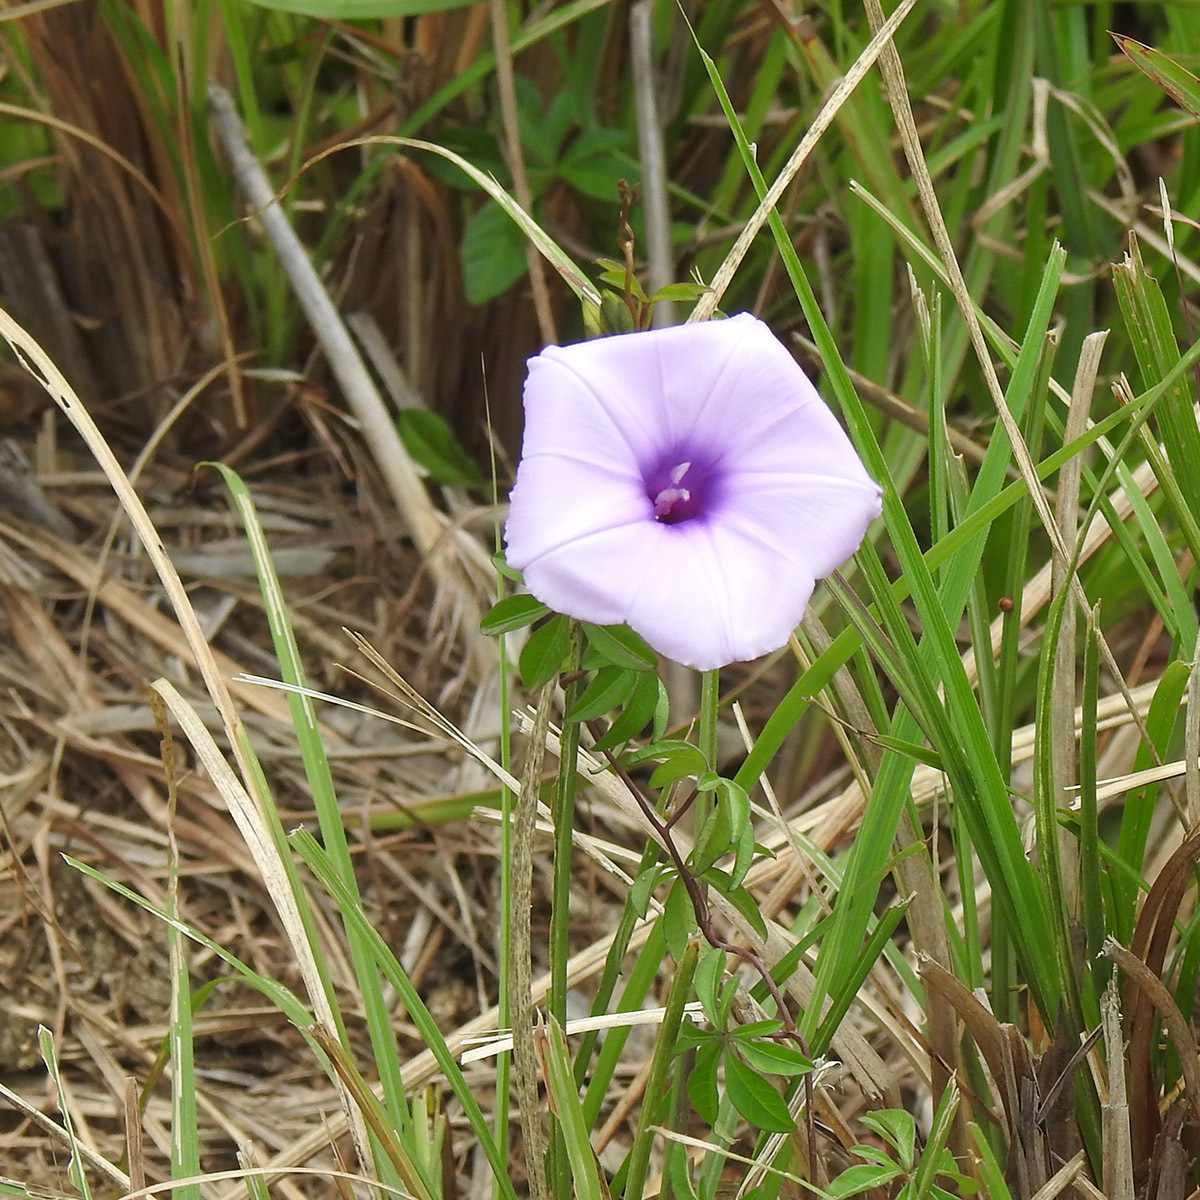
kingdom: Plantae
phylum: Tracheophyta
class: Magnoliopsida
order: Solanales
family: Convolvulaceae
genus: Ipomoea
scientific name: Ipomoea cairica
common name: Mile a minute vine
